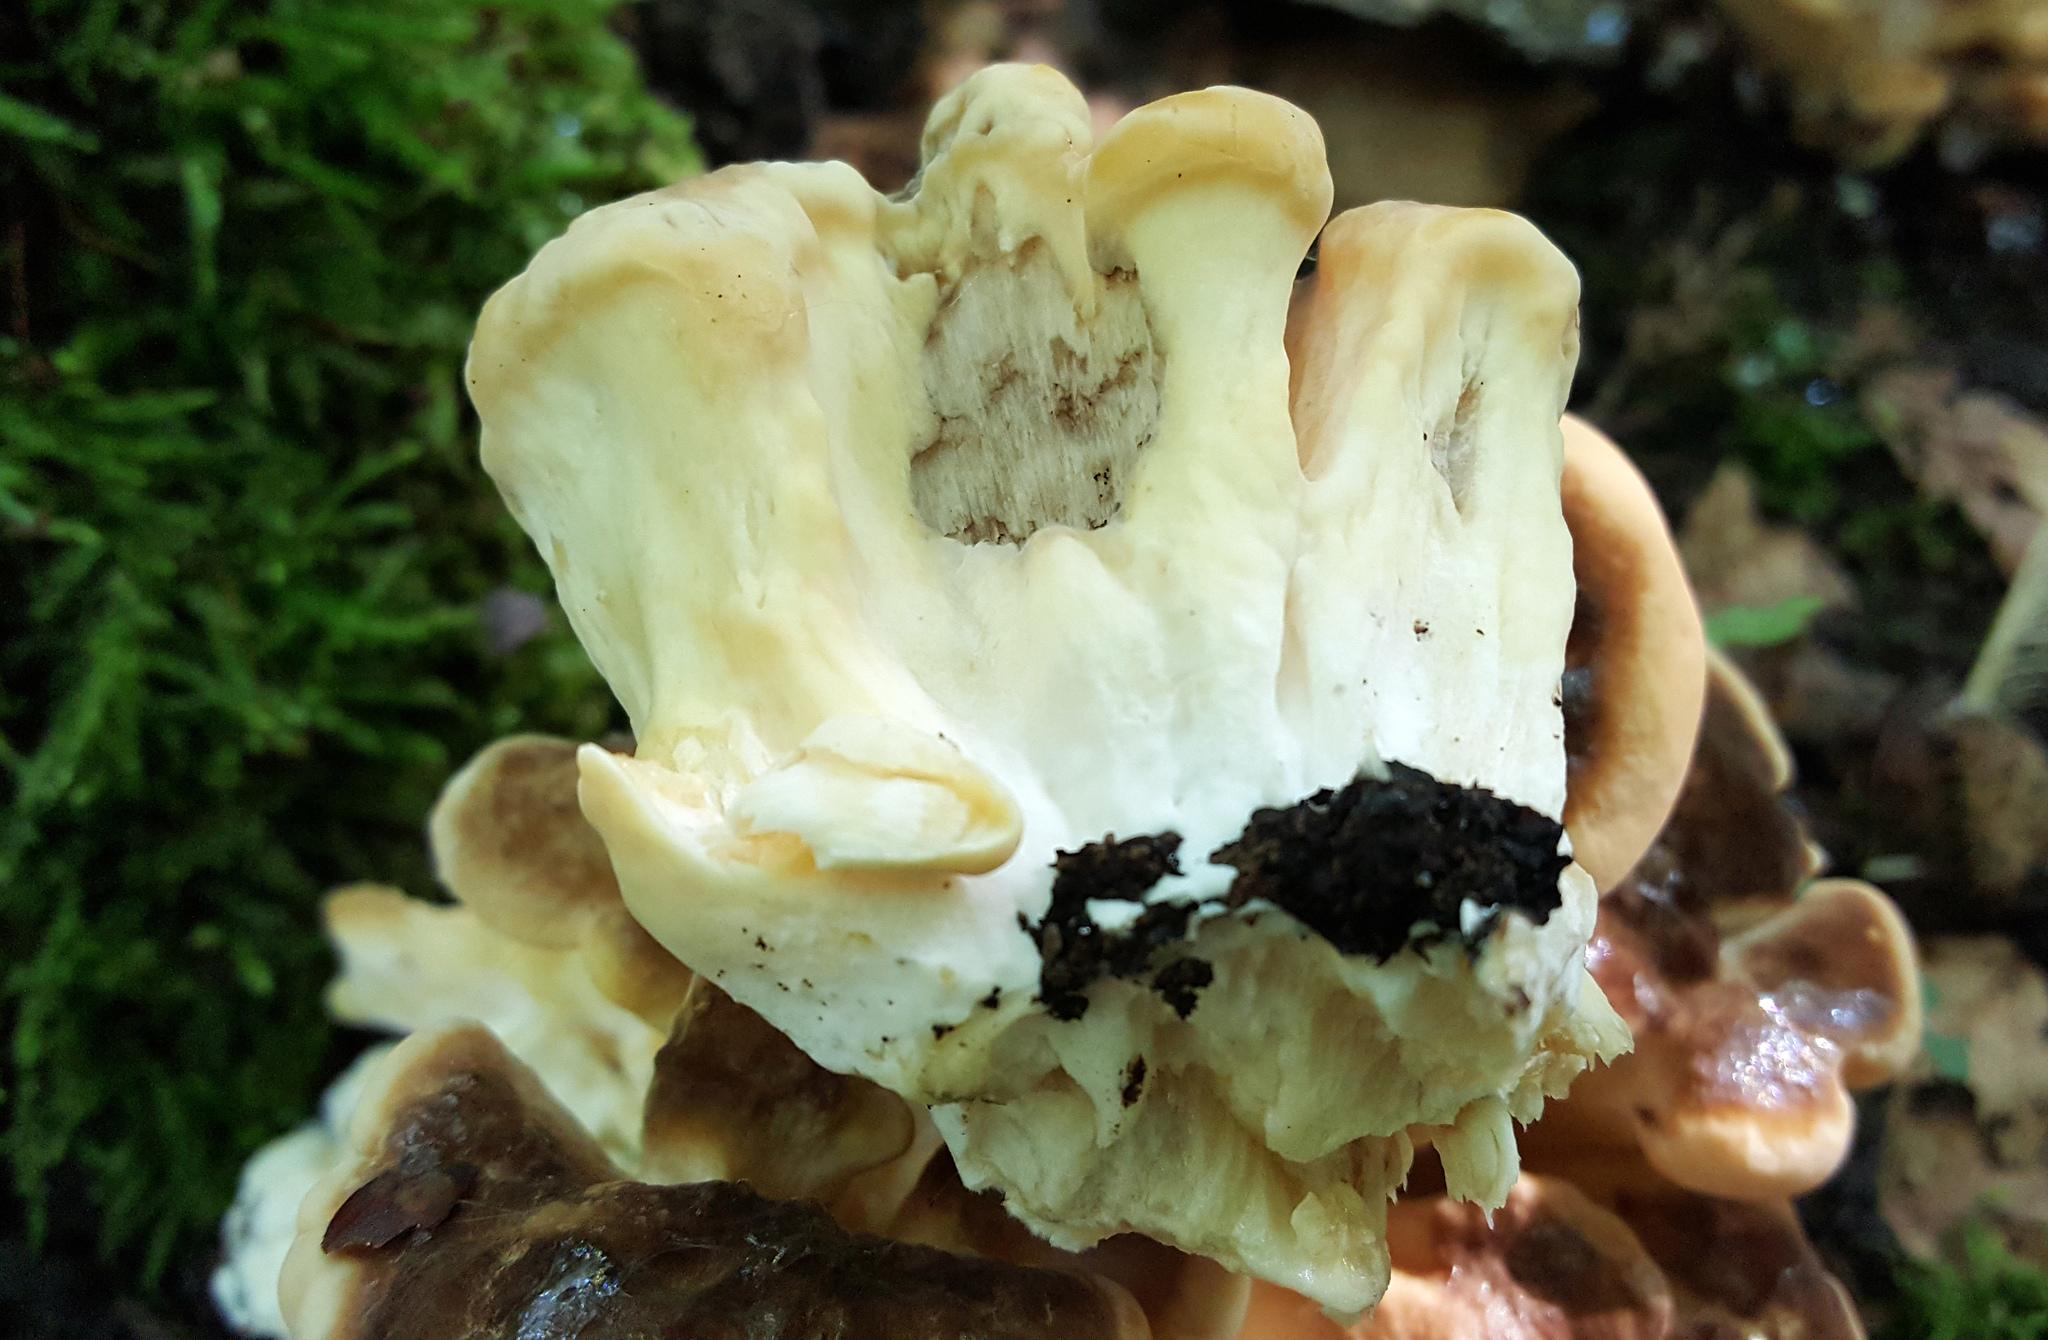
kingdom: Fungi
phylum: Basidiomycota
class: Agaricomycetes
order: Polyporales
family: Meripilaceae
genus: Meripilus
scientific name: Meripilus giganteus
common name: Giant polypore
